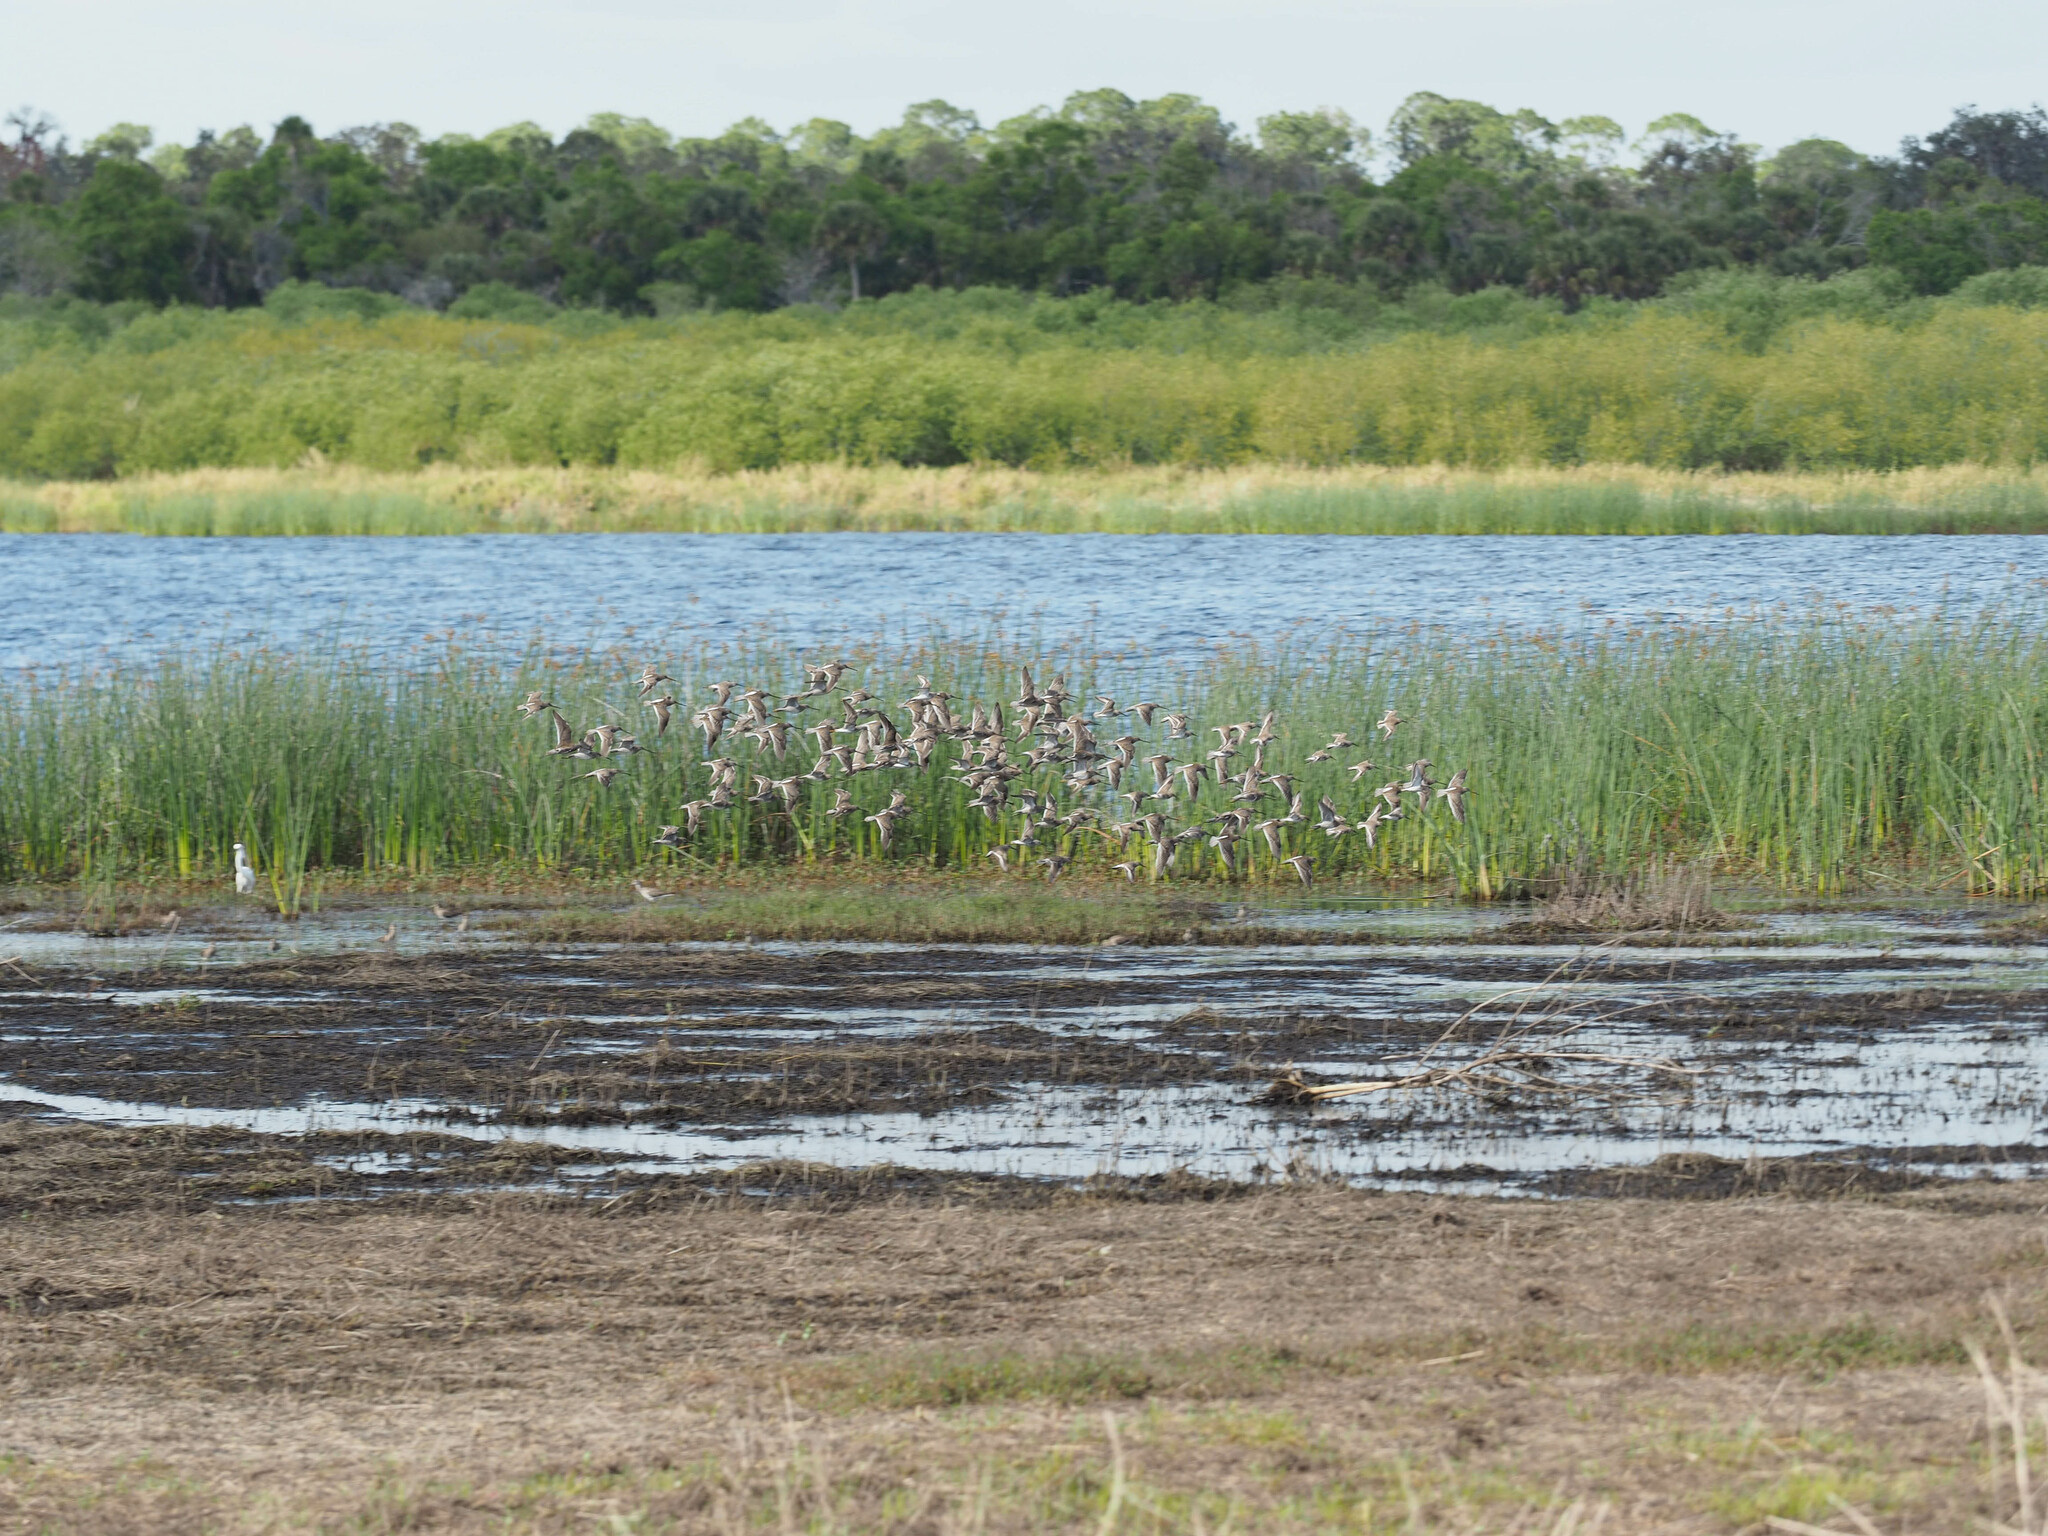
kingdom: Animalia
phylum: Chordata
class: Aves
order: Charadriiformes
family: Scolopacidae
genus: Limnodromus
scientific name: Limnodromus scolopaceus
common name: Long-billed dowitcher
